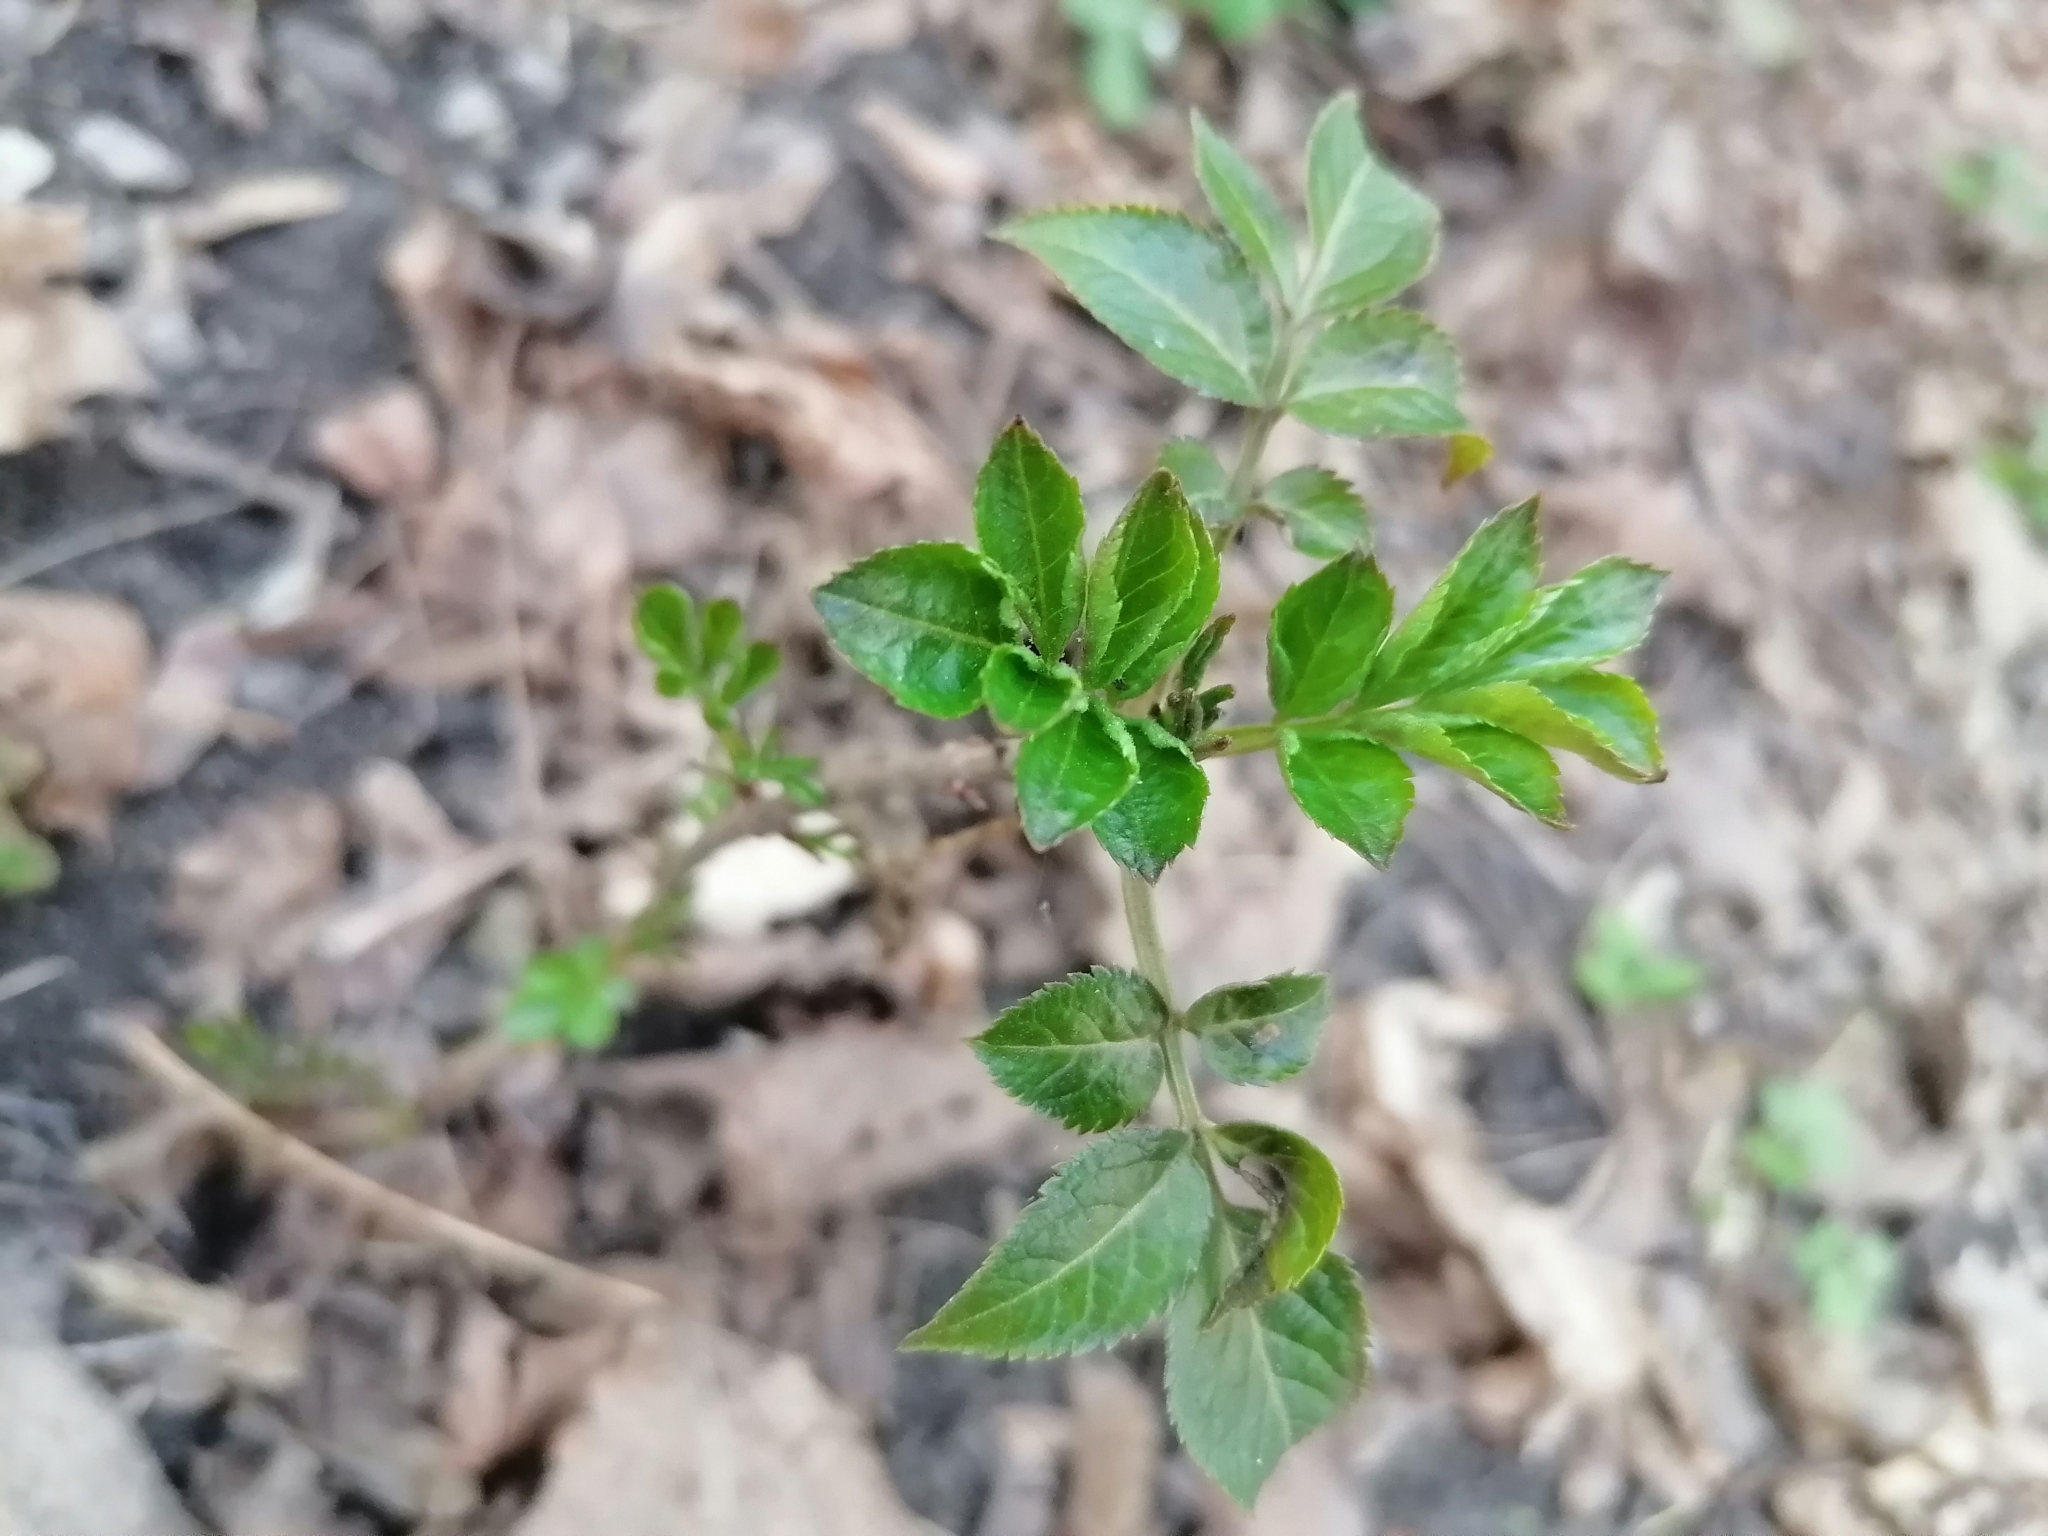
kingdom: Plantae
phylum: Tracheophyta
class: Magnoliopsida
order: Dipsacales
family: Viburnaceae
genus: Sambucus
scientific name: Sambucus nigra
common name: Elder
